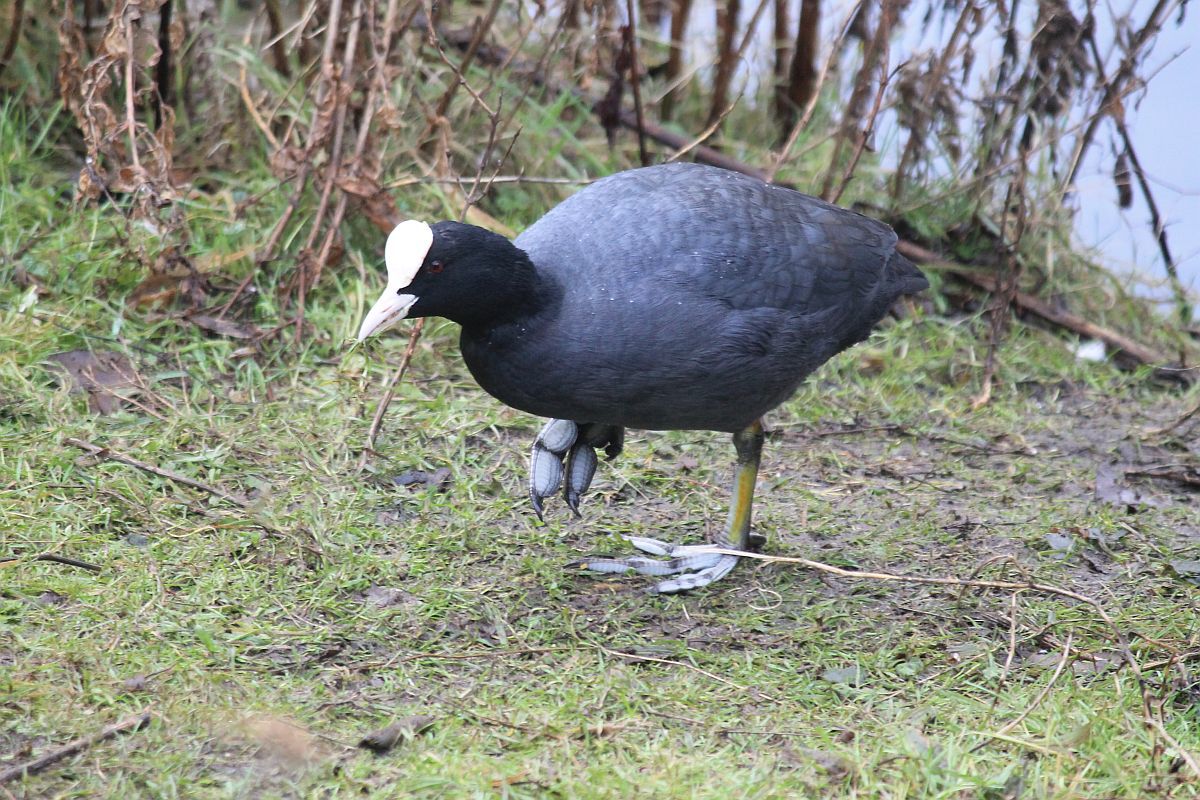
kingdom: Animalia
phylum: Chordata
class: Aves
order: Gruiformes
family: Rallidae
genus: Fulica
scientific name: Fulica atra
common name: Eurasian coot
